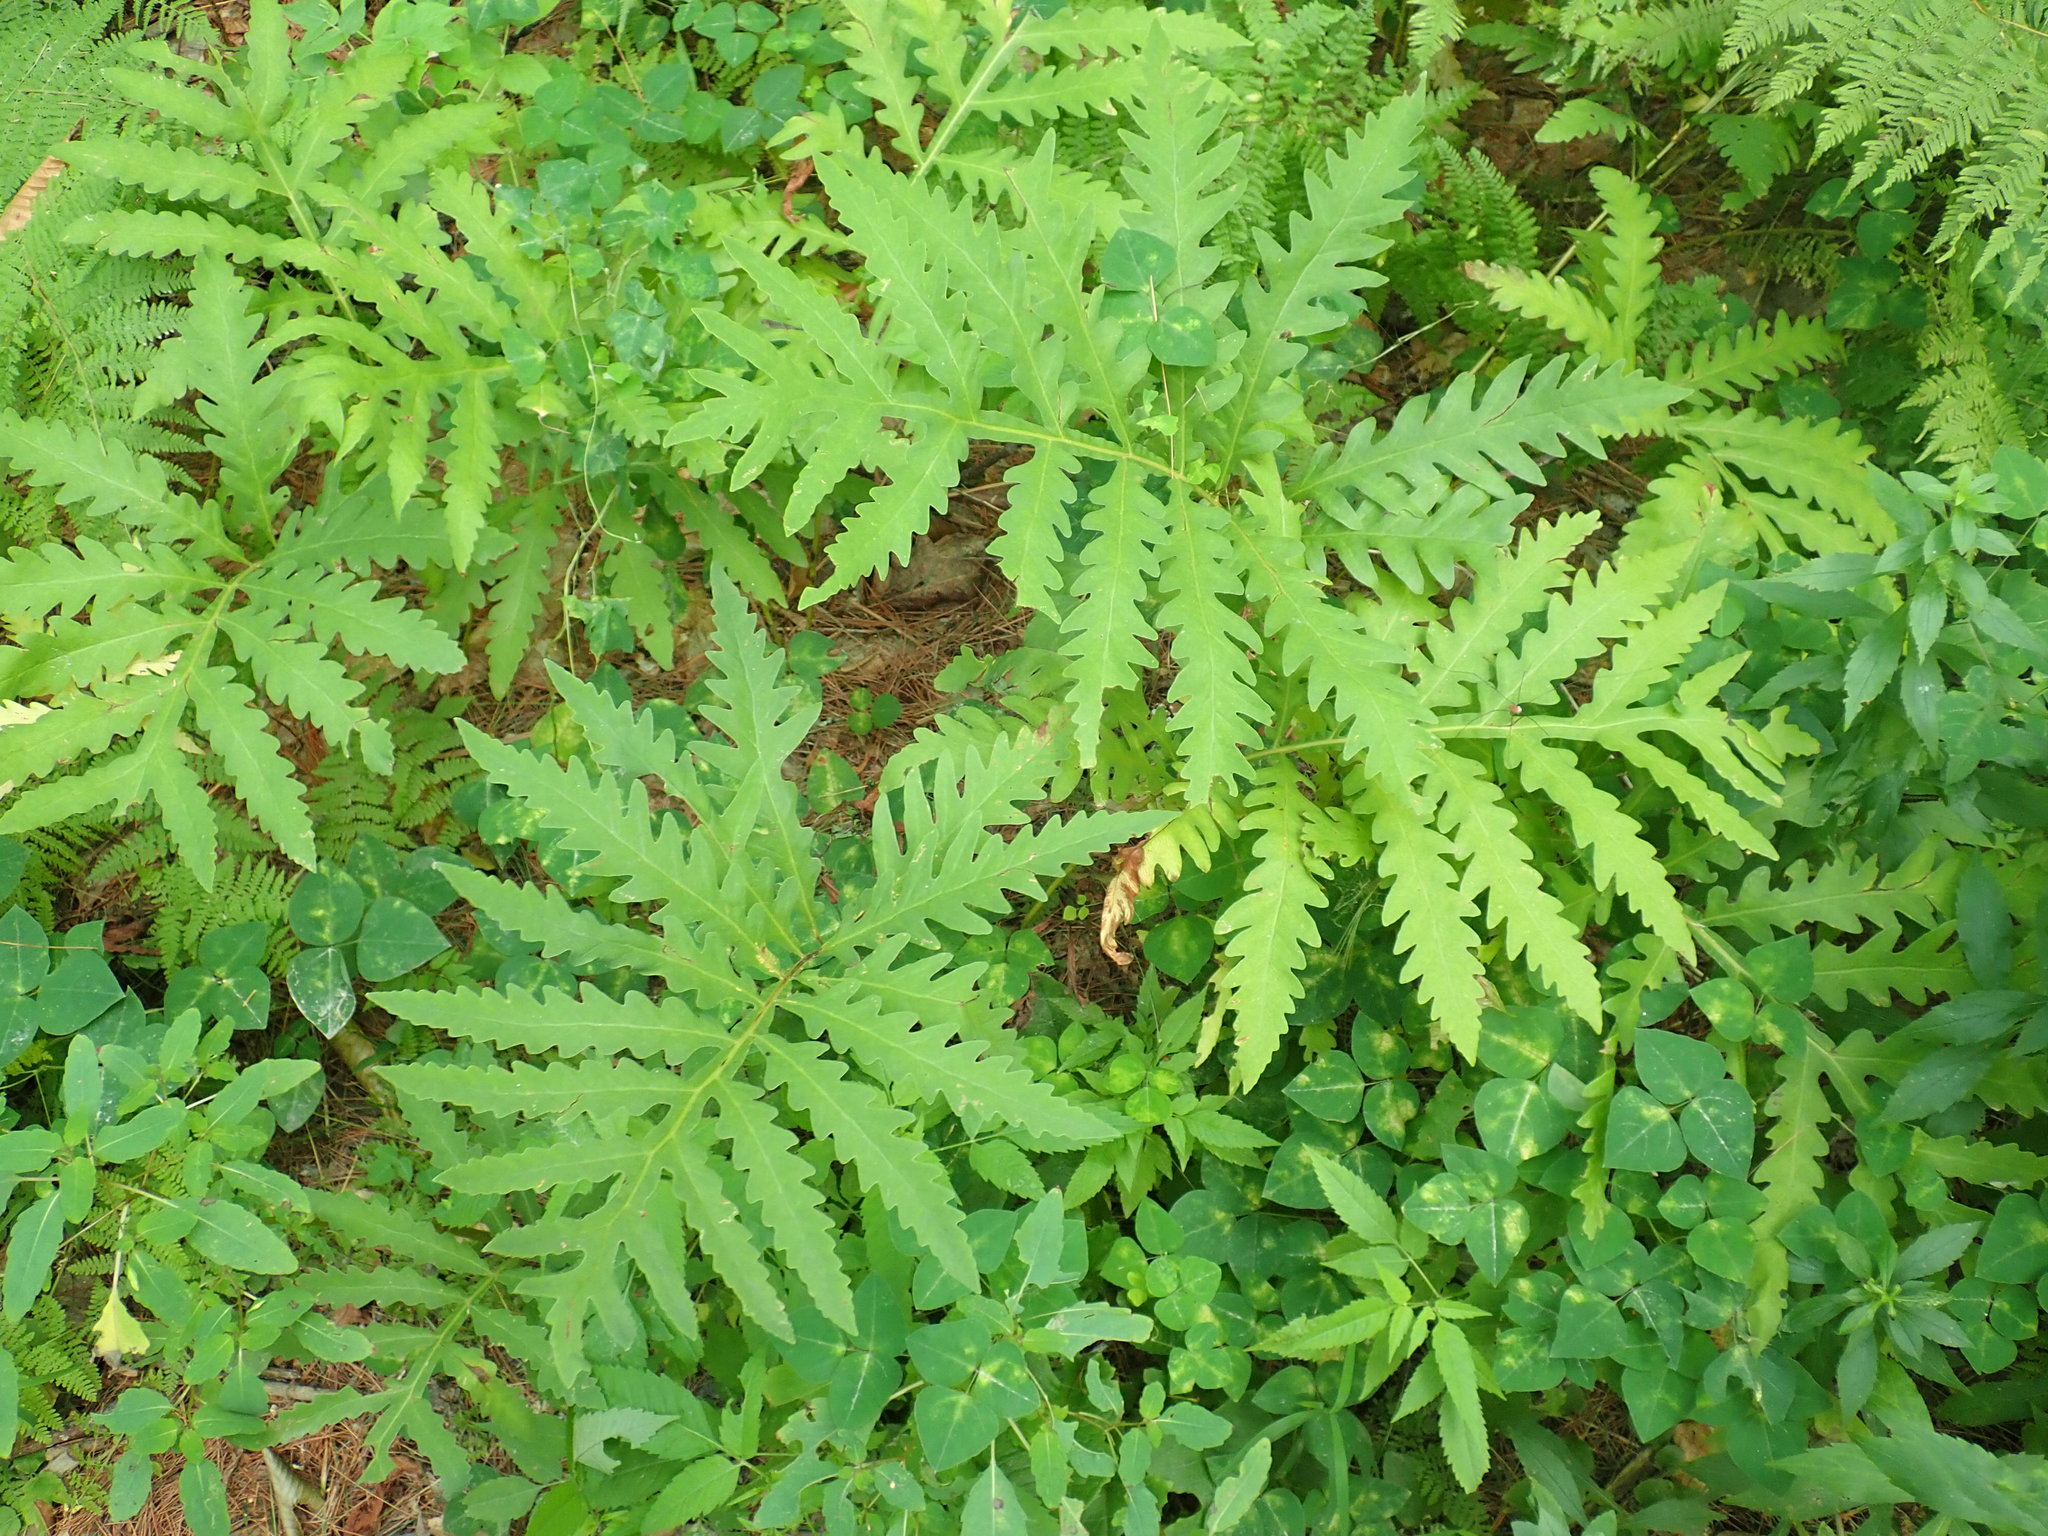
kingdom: Plantae
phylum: Tracheophyta
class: Polypodiopsida
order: Polypodiales
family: Onocleaceae
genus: Onoclea
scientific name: Onoclea sensibilis
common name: Sensitive fern
